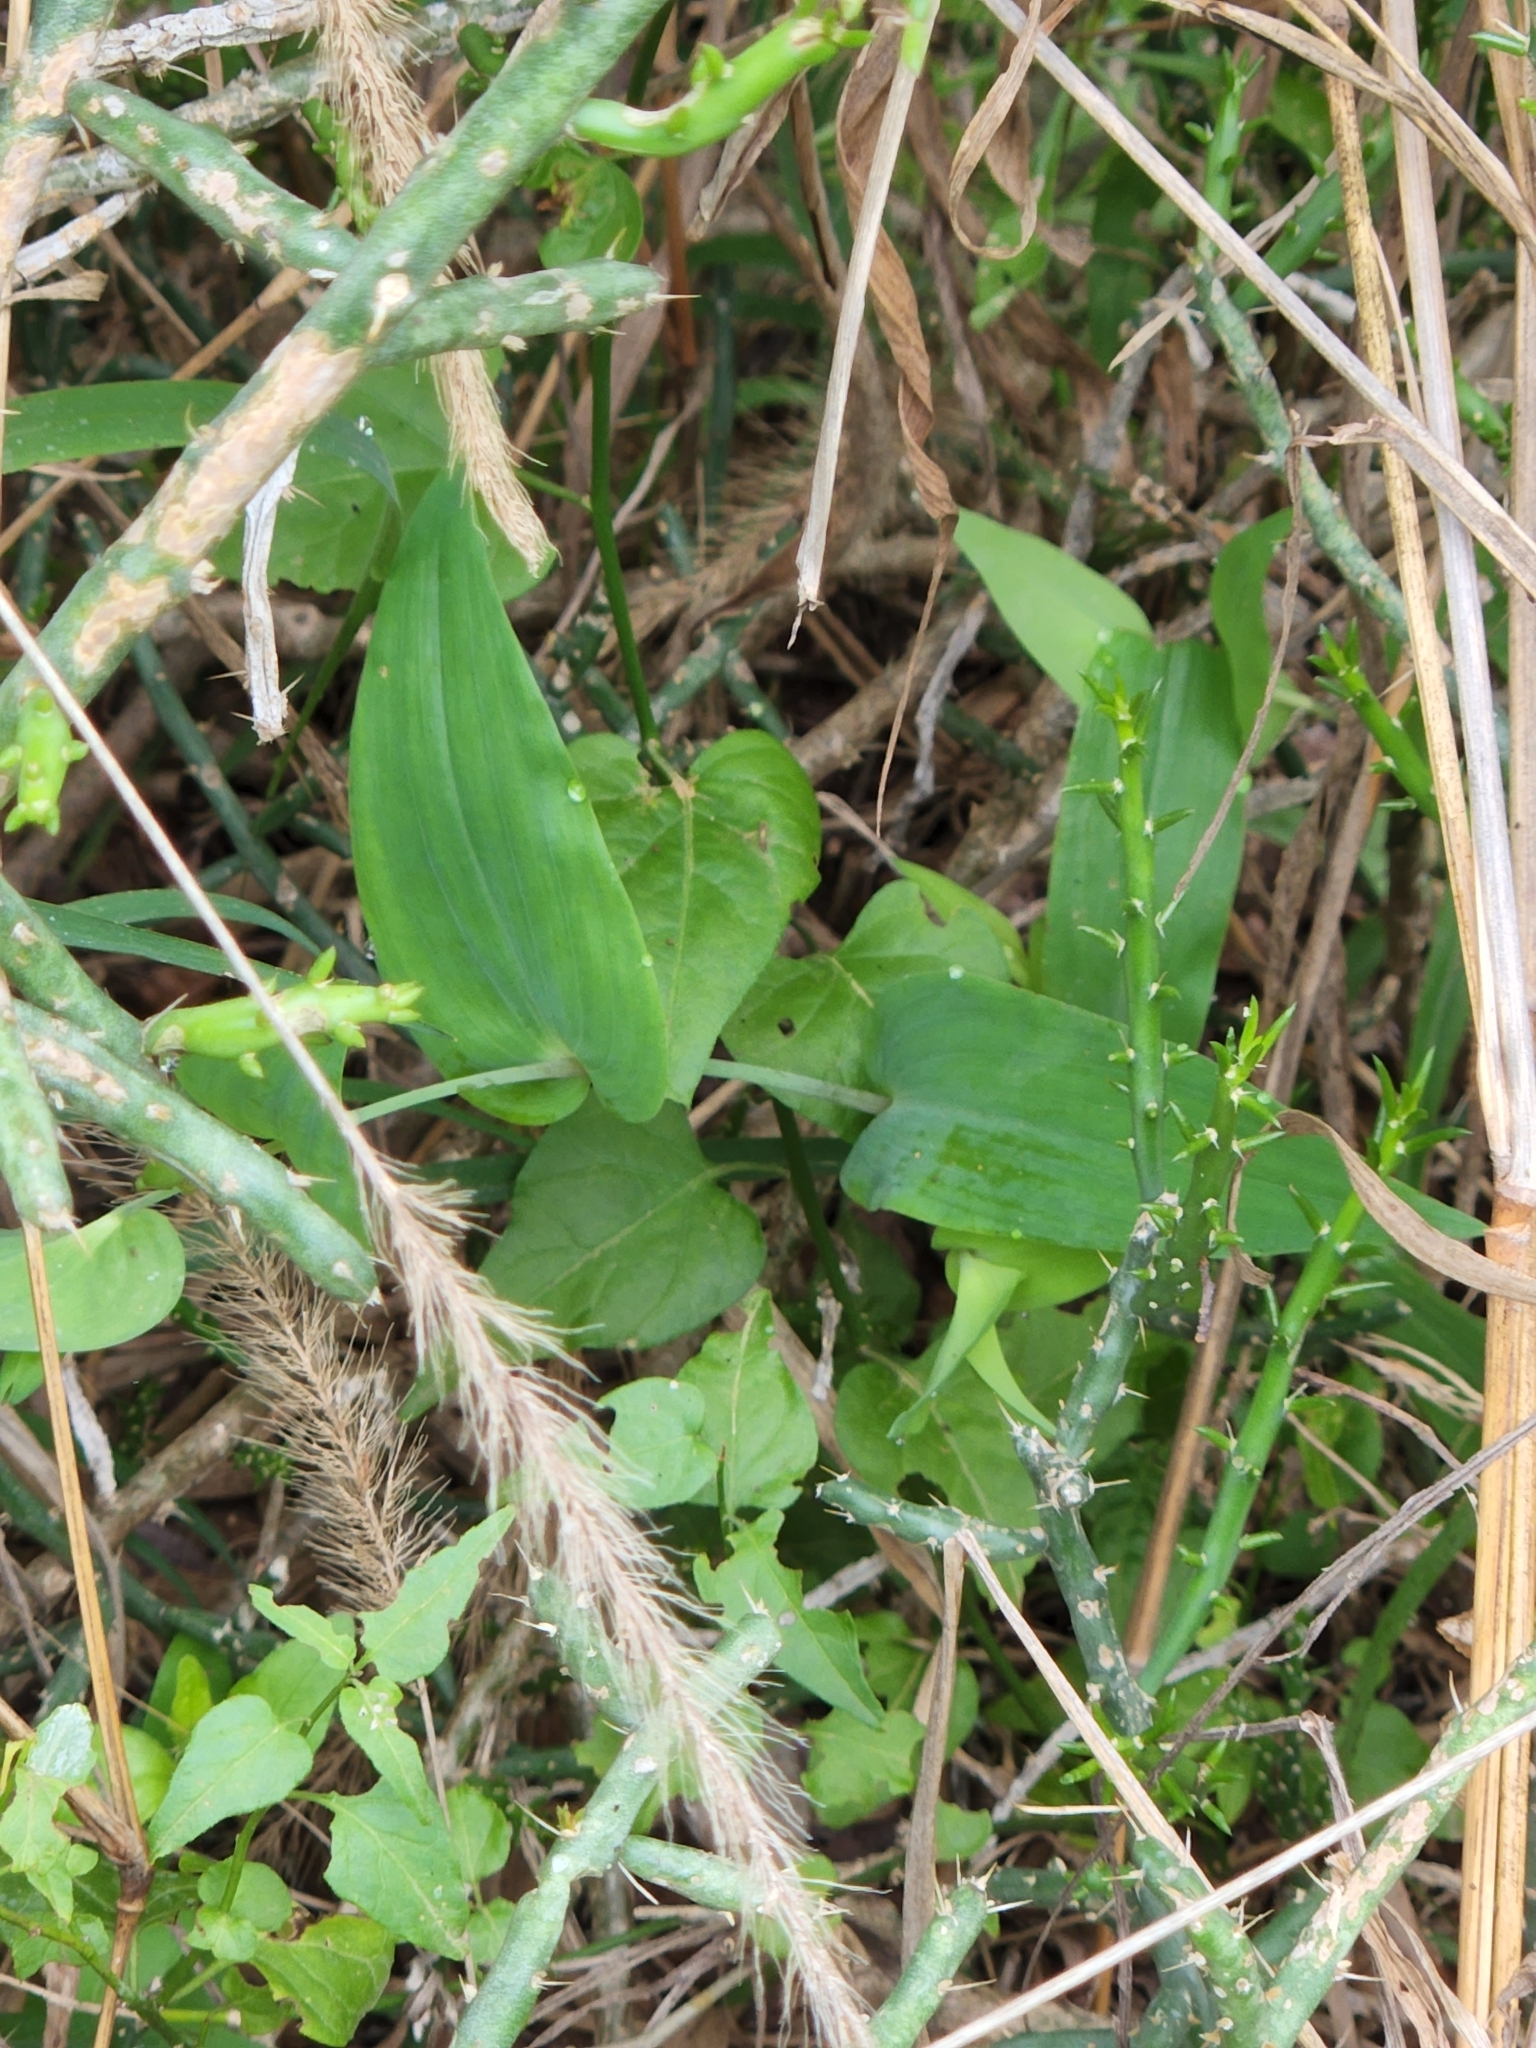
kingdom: Plantae
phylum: Tracheophyta
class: Liliopsida
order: Commelinales
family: Commelinaceae
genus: Tinantia
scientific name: Tinantia anomala
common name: False dayflower
